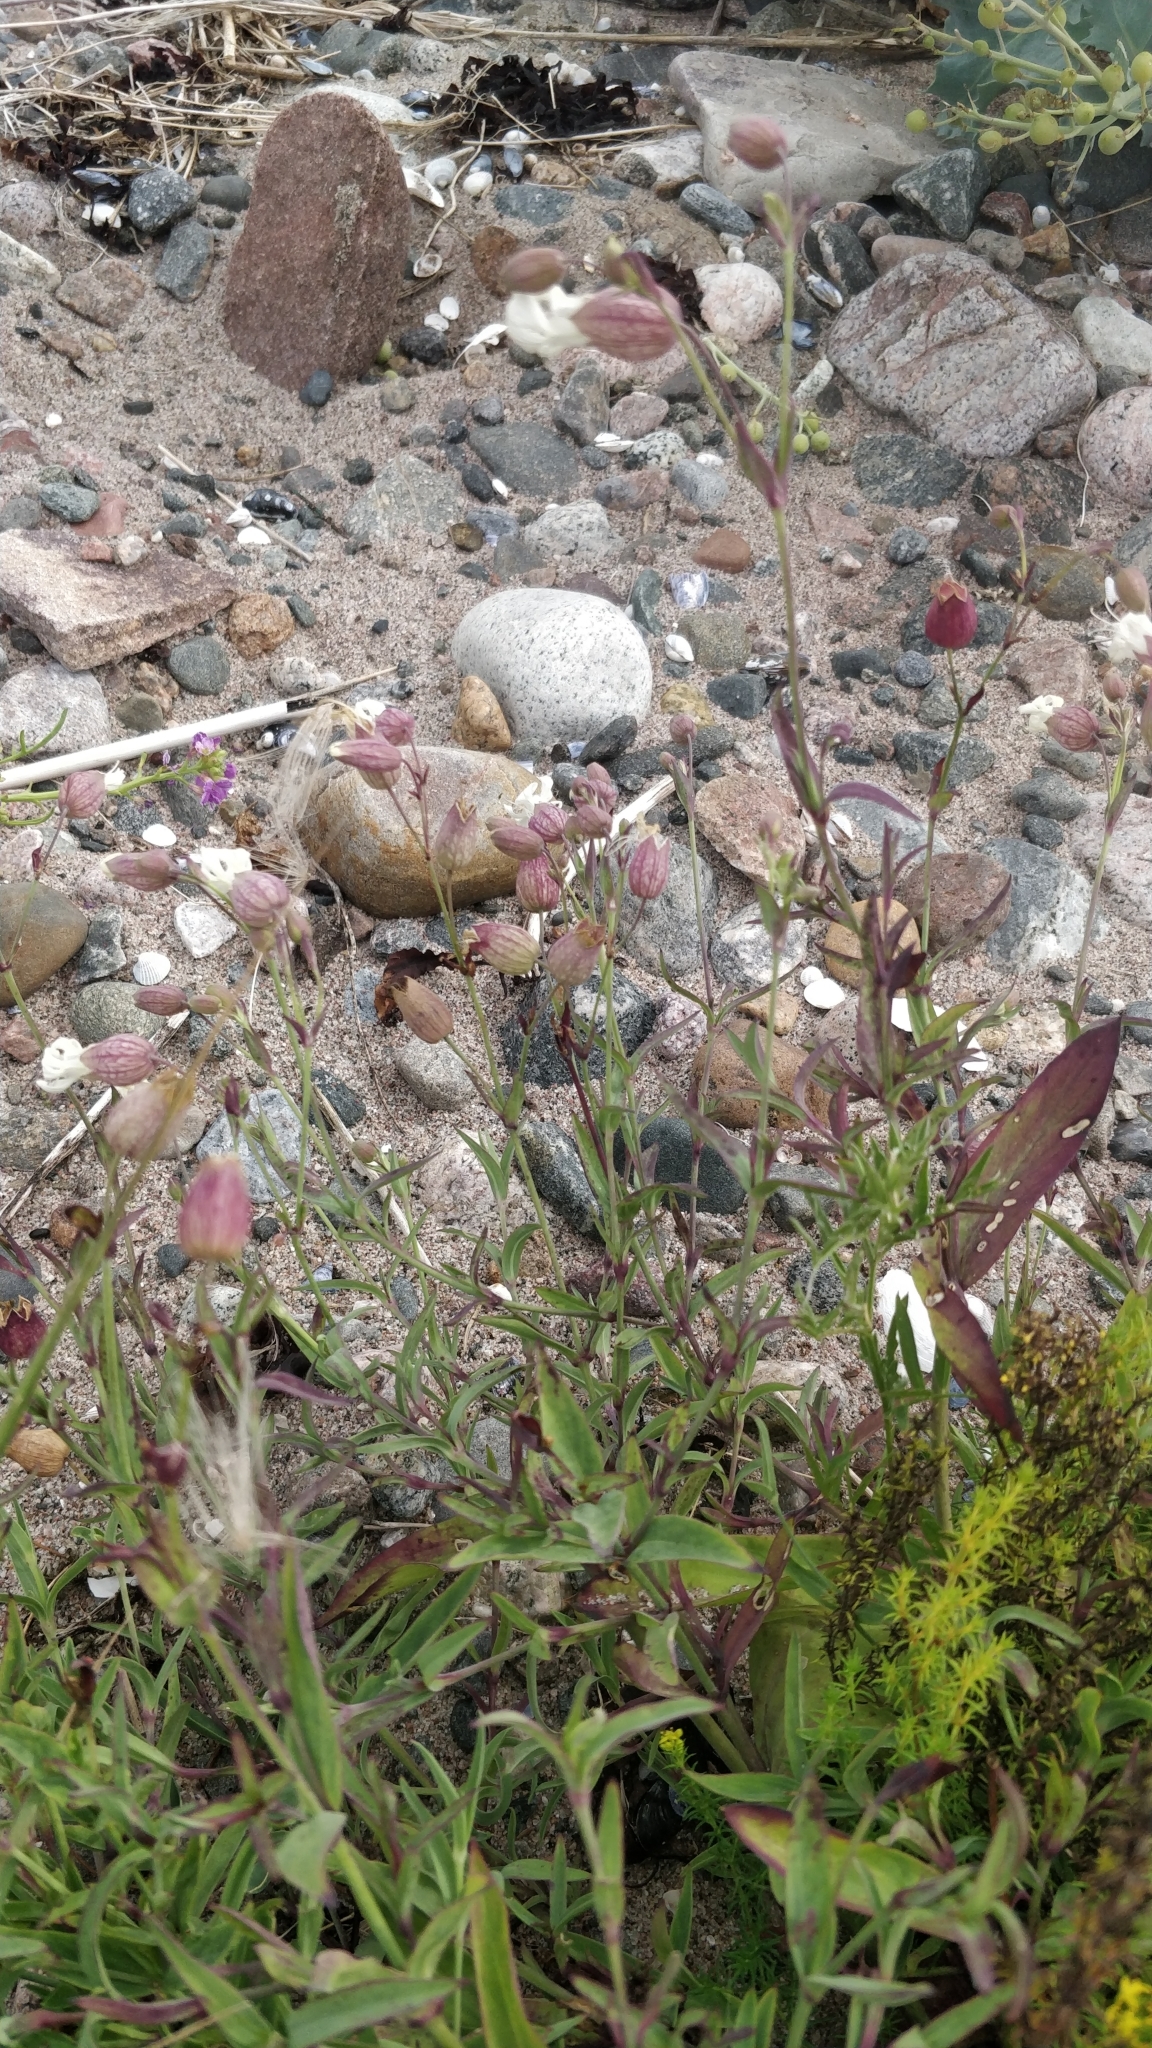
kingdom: Plantae
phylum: Tracheophyta
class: Magnoliopsida
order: Caryophyllales
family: Caryophyllaceae
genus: Silene
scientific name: Silene vulgaris
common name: Bladder campion
